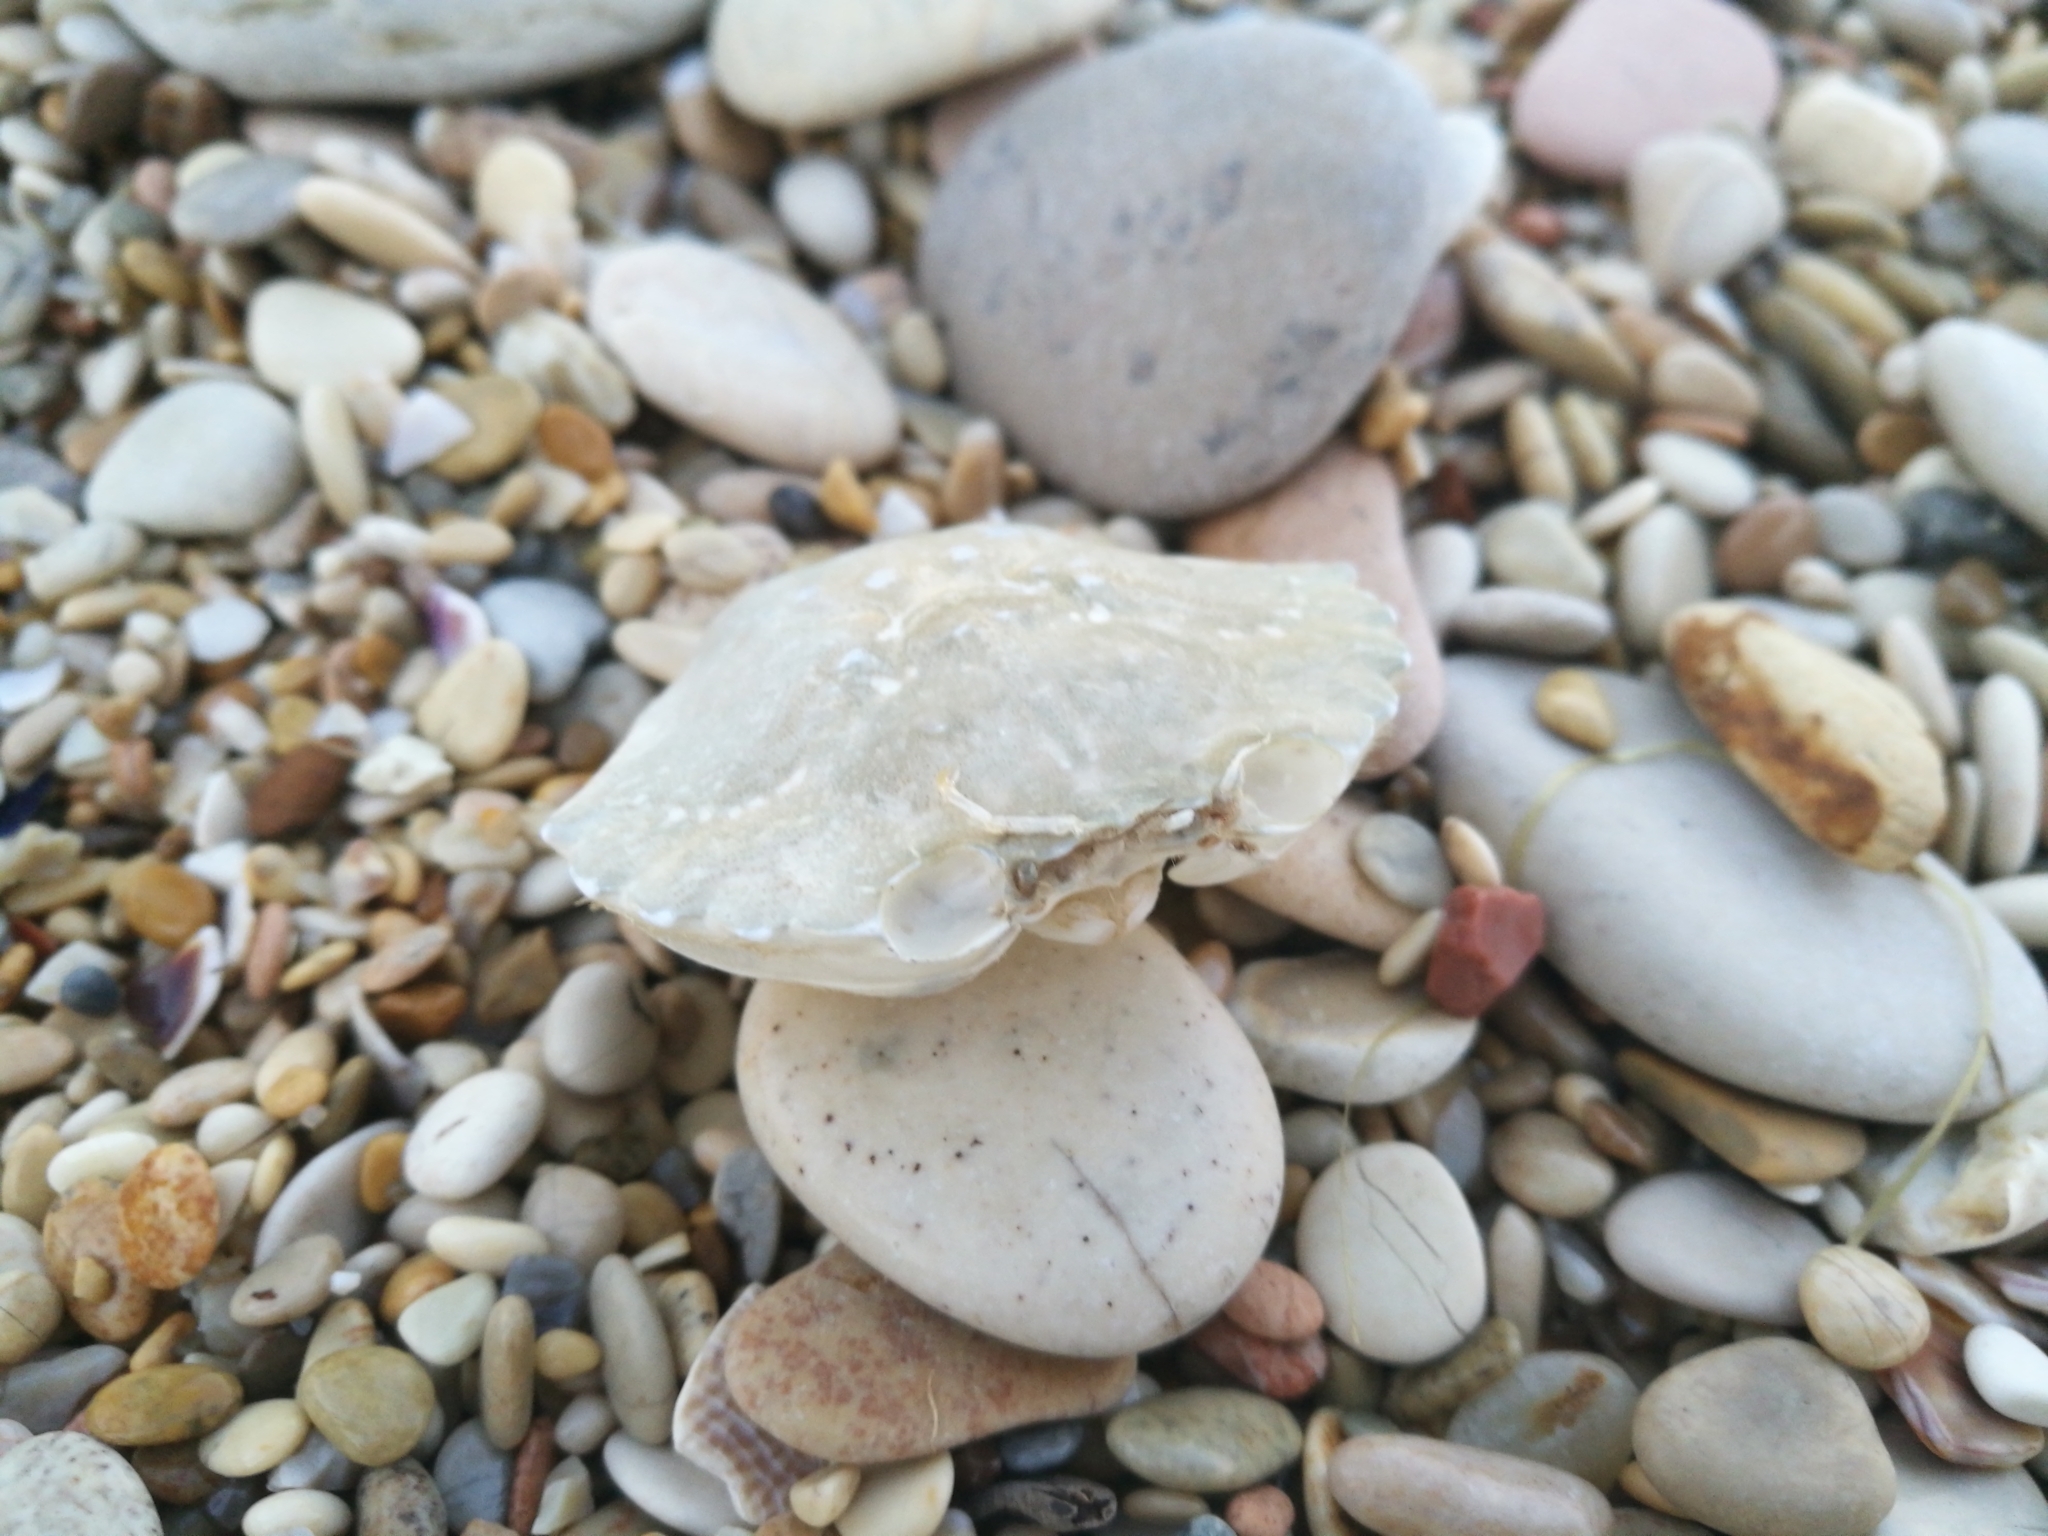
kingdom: Animalia
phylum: Arthropoda
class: Malacostraca
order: Decapoda
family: Carcinidae
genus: Carcinus
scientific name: Carcinus aestuarii
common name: Mediterranean green crab
